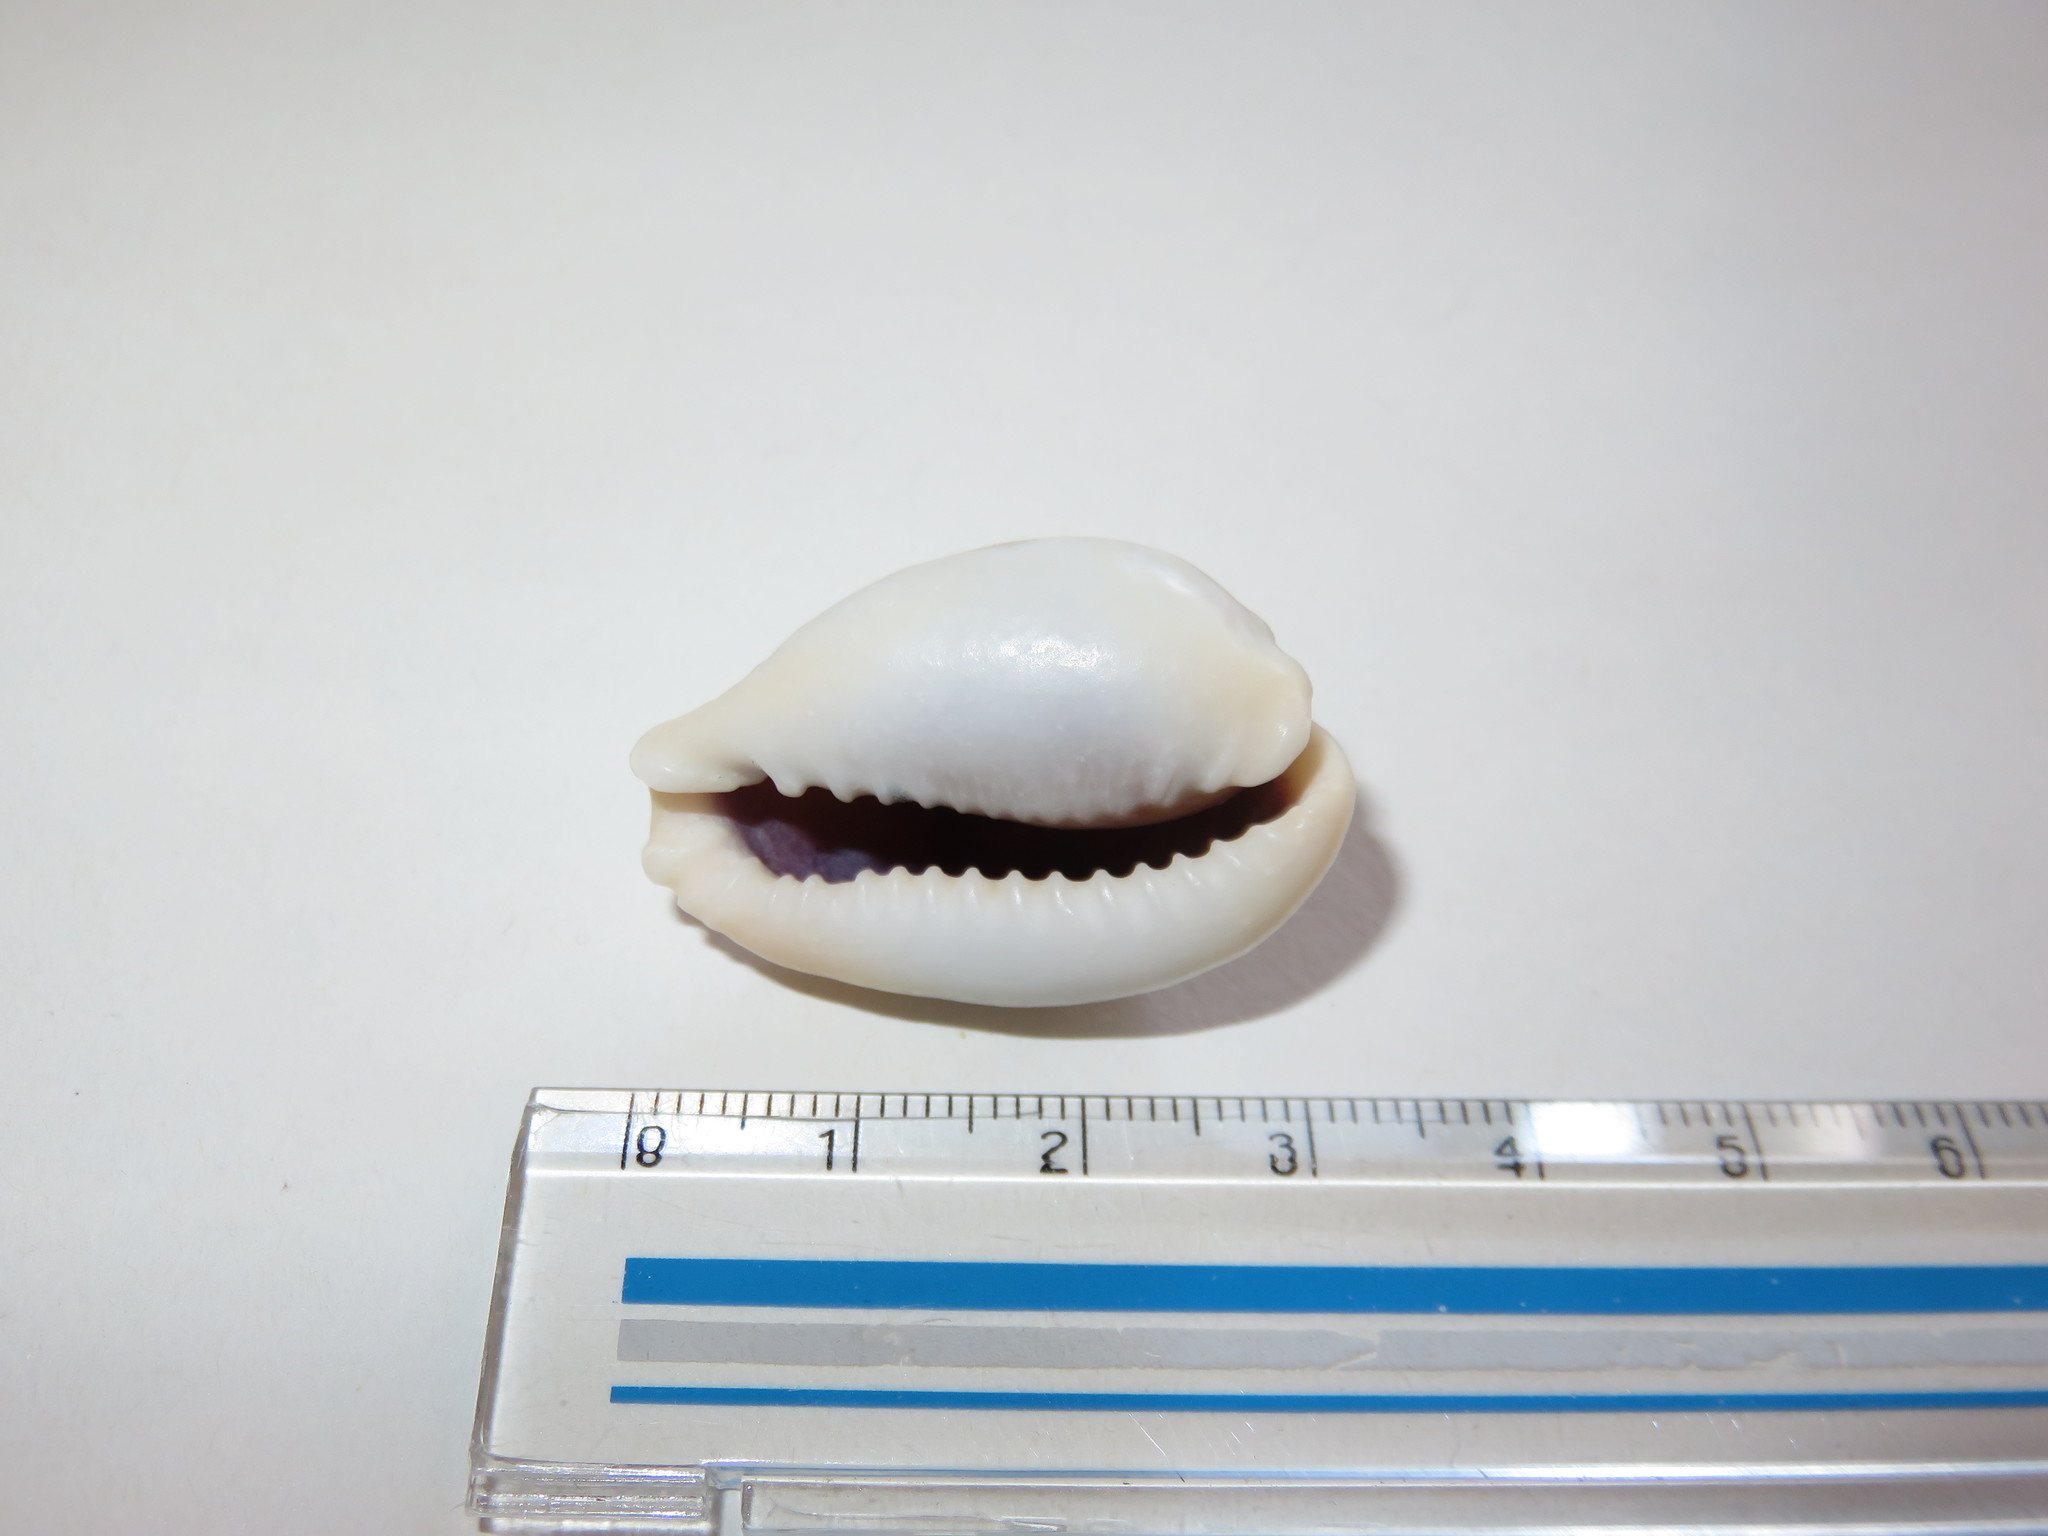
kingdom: Animalia
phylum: Mollusca
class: Gastropoda
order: Littorinimorpha
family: Cypraeidae
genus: Naria
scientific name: Naria miliaris
